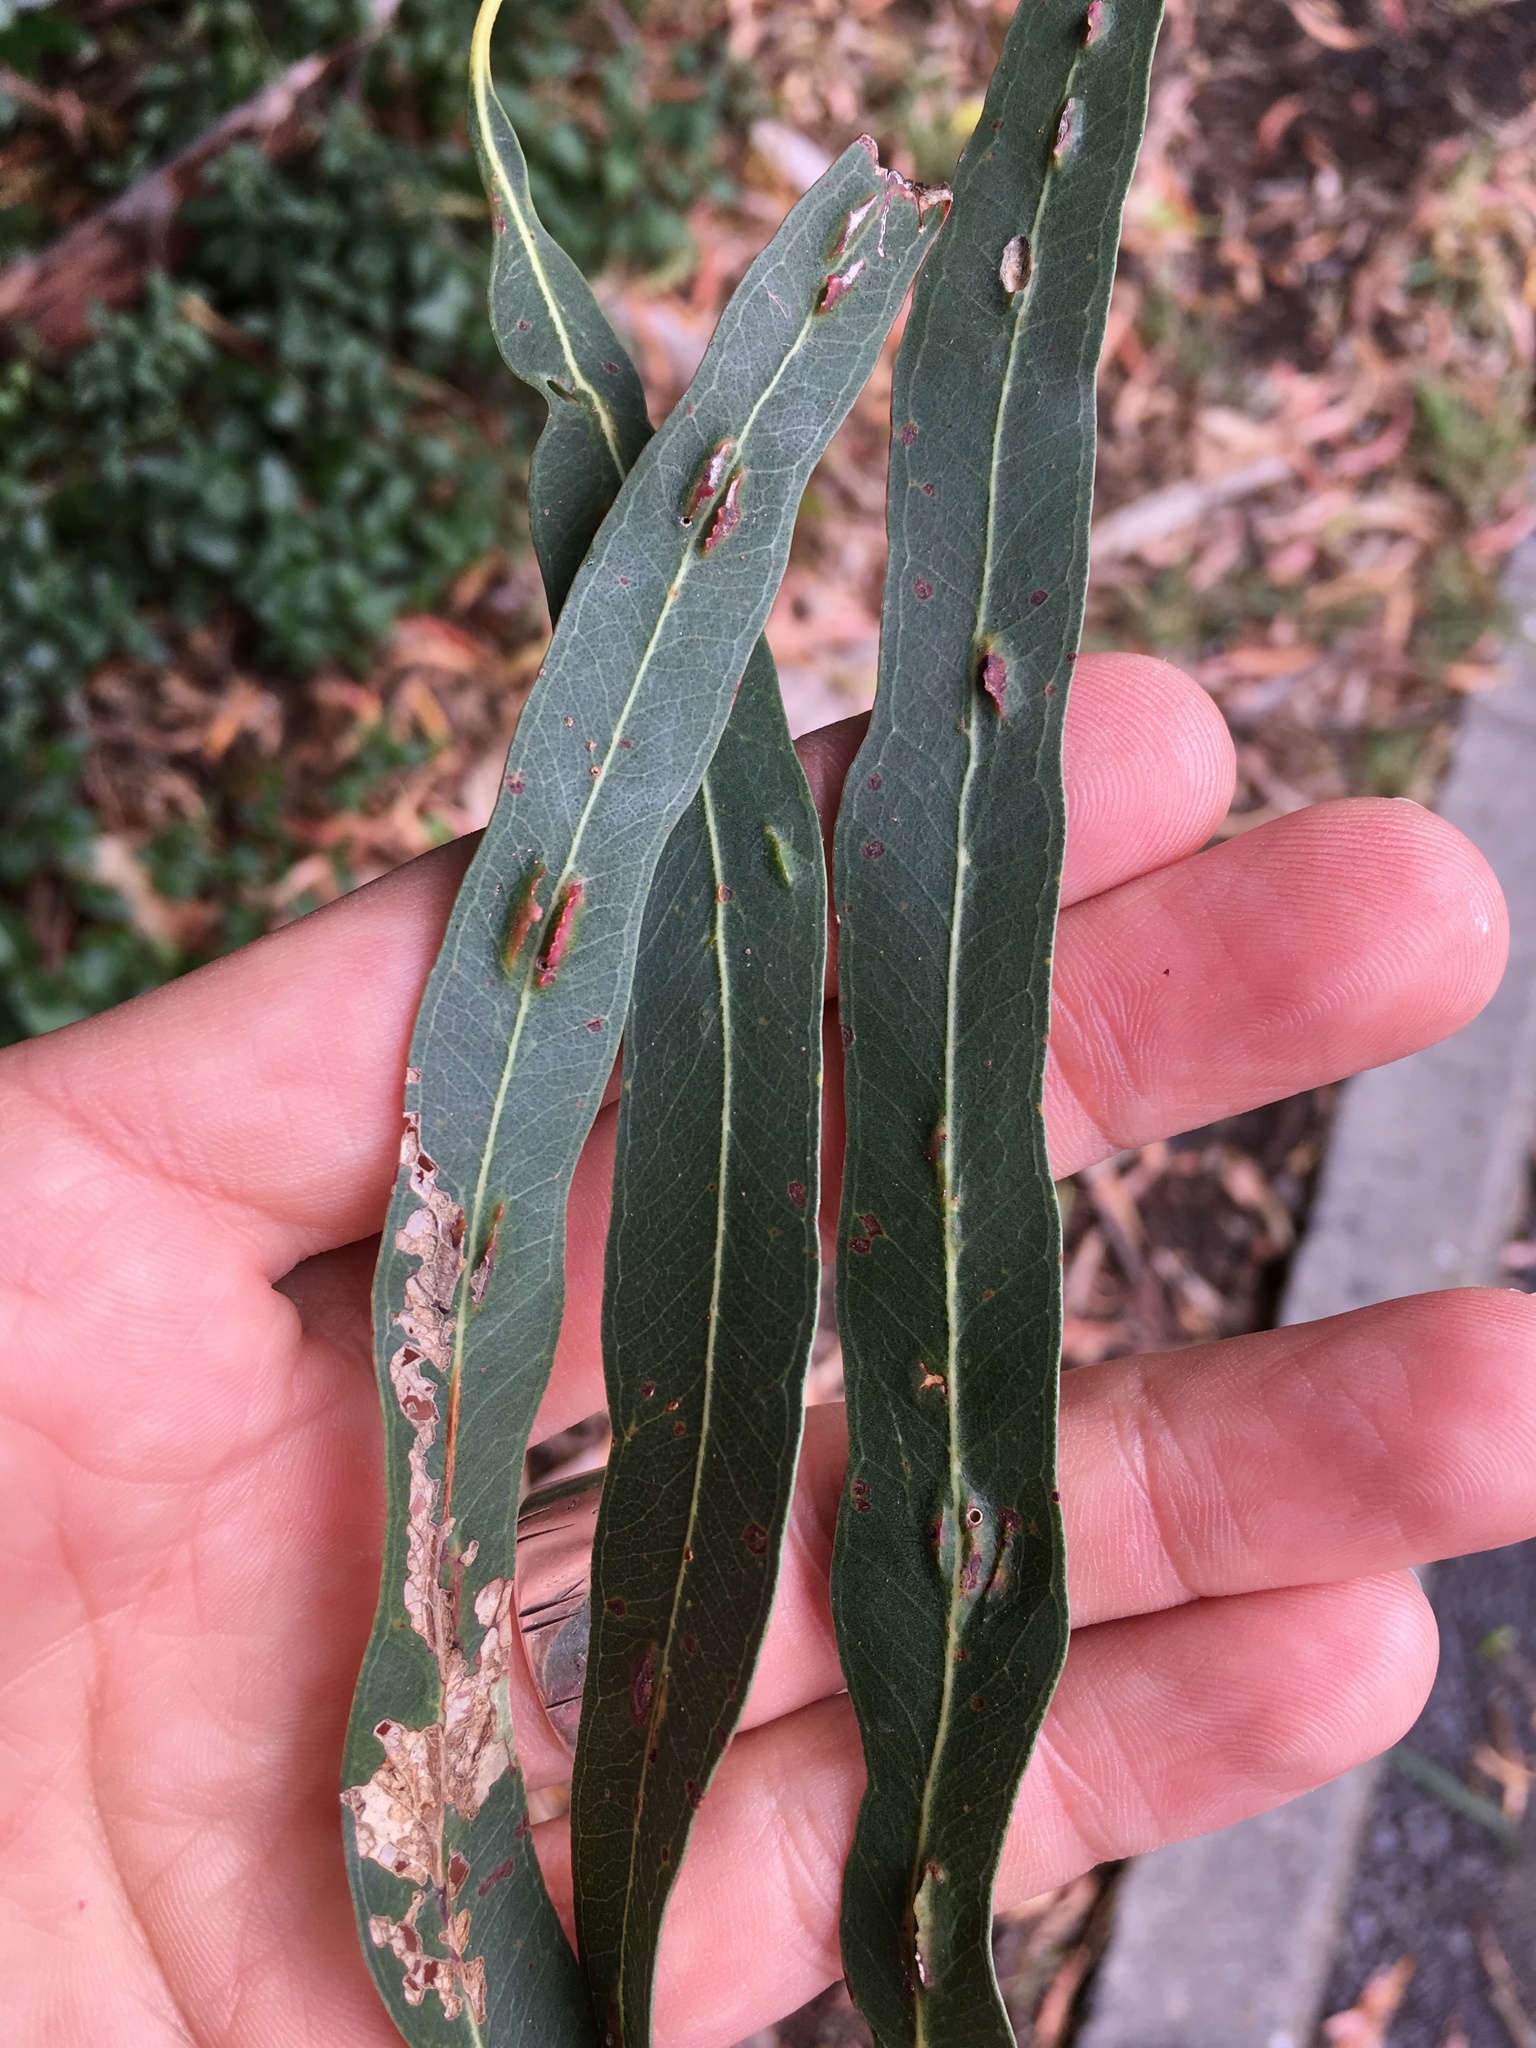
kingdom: Animalia
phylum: Arthropoda
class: Insecta
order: Hymenoptera
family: Pteromalidae
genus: Nambouria
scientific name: Nambouria xanthops
